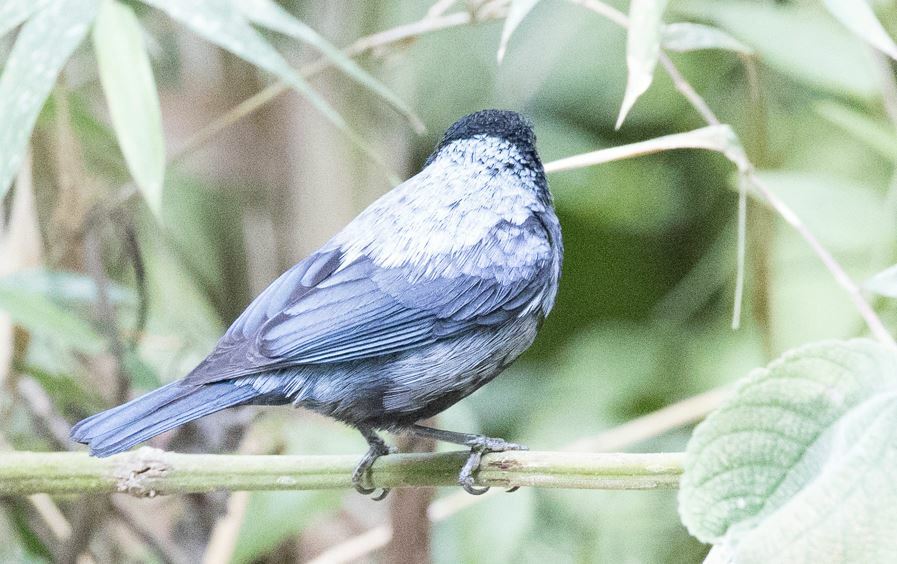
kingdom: Animalia
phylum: Chordata
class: Aves
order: Passeriformes
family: Thraupidae
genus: Stilpnia
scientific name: Stilpnia viridicollis
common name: Silver-backed tanager
